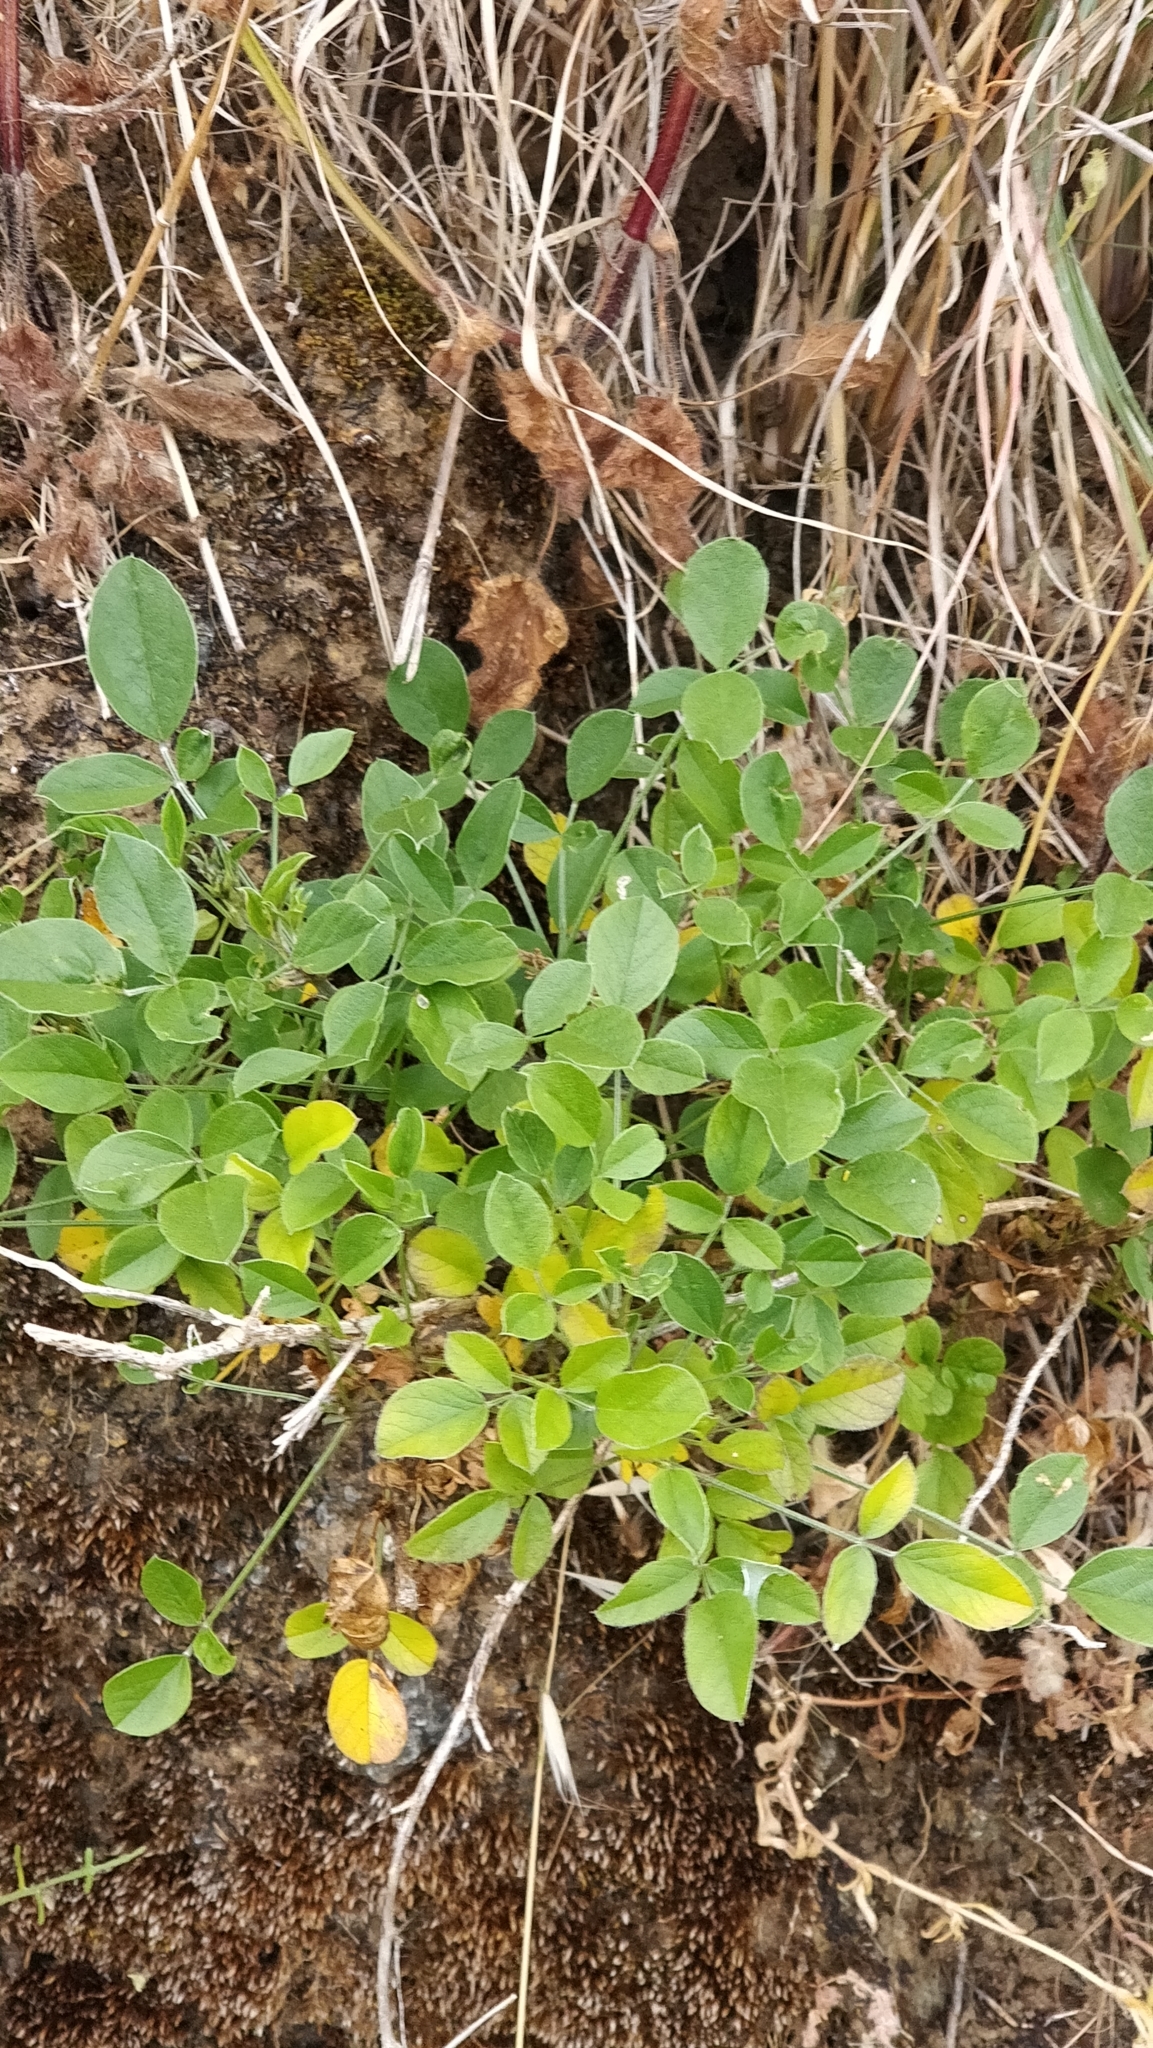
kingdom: Plantae
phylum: Tracheophyta
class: Magnoliopsida
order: Fabales
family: Fabaceae
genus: Bituminaria
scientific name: Bituminaria bituminosa
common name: Arabian pea
